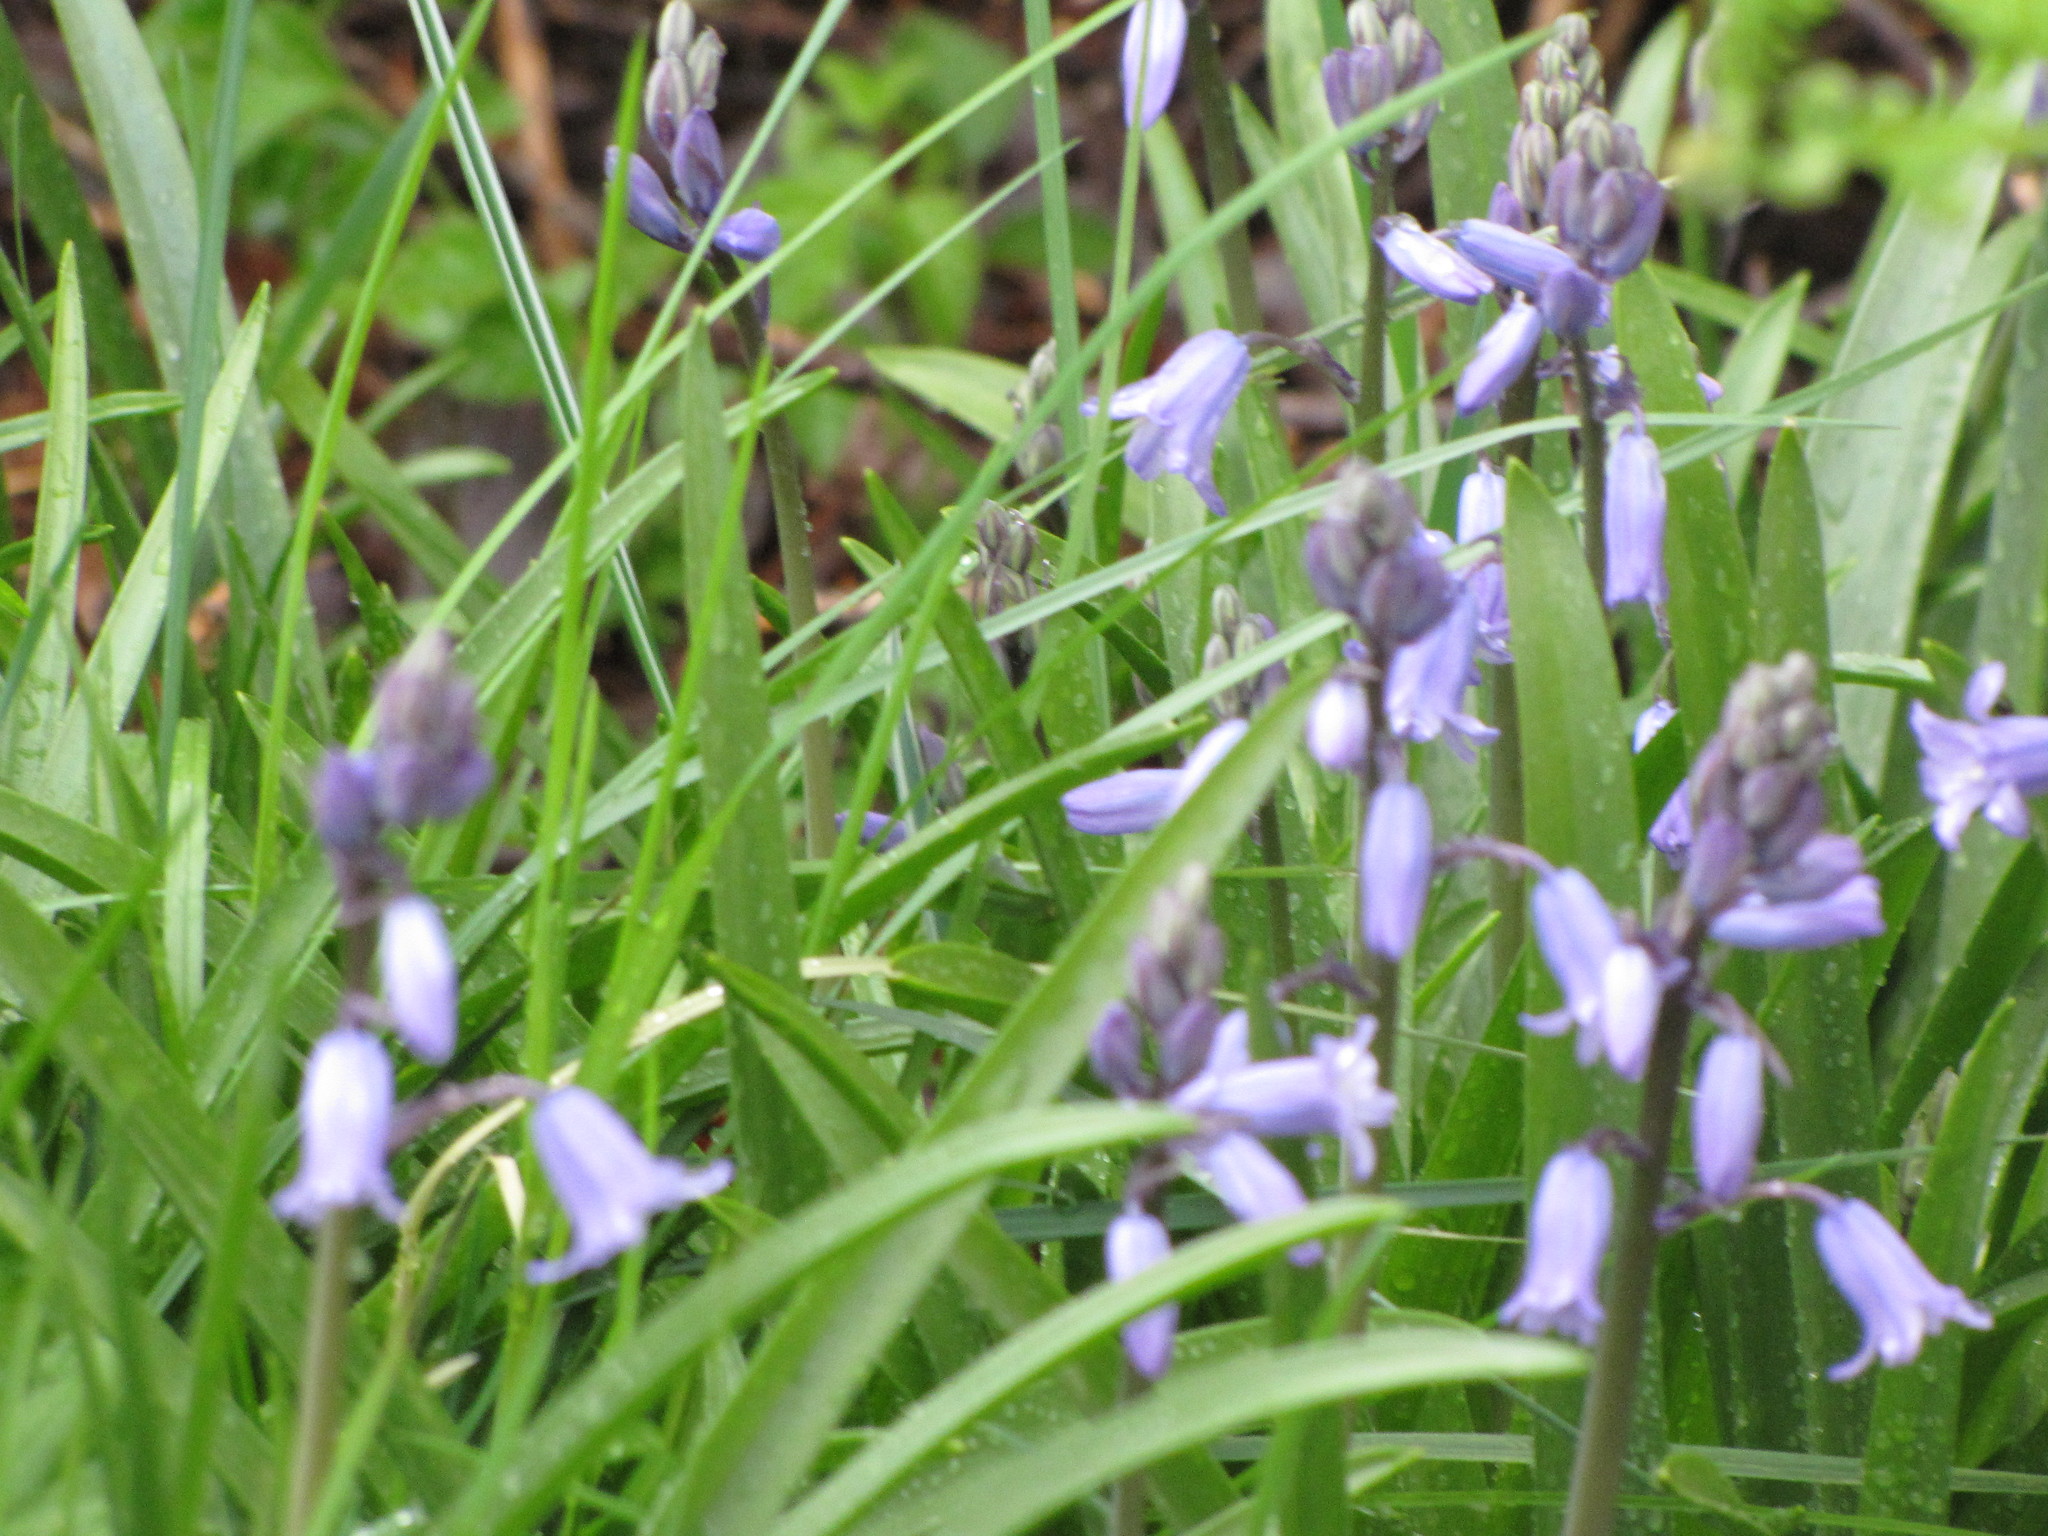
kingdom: Plantae
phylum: Tracheophyta
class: Liliopsida
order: Asparagales
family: Asparagaceae
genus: Hyacinthoides
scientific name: Hyacinthoides hispanica
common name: Spanish bluebell
